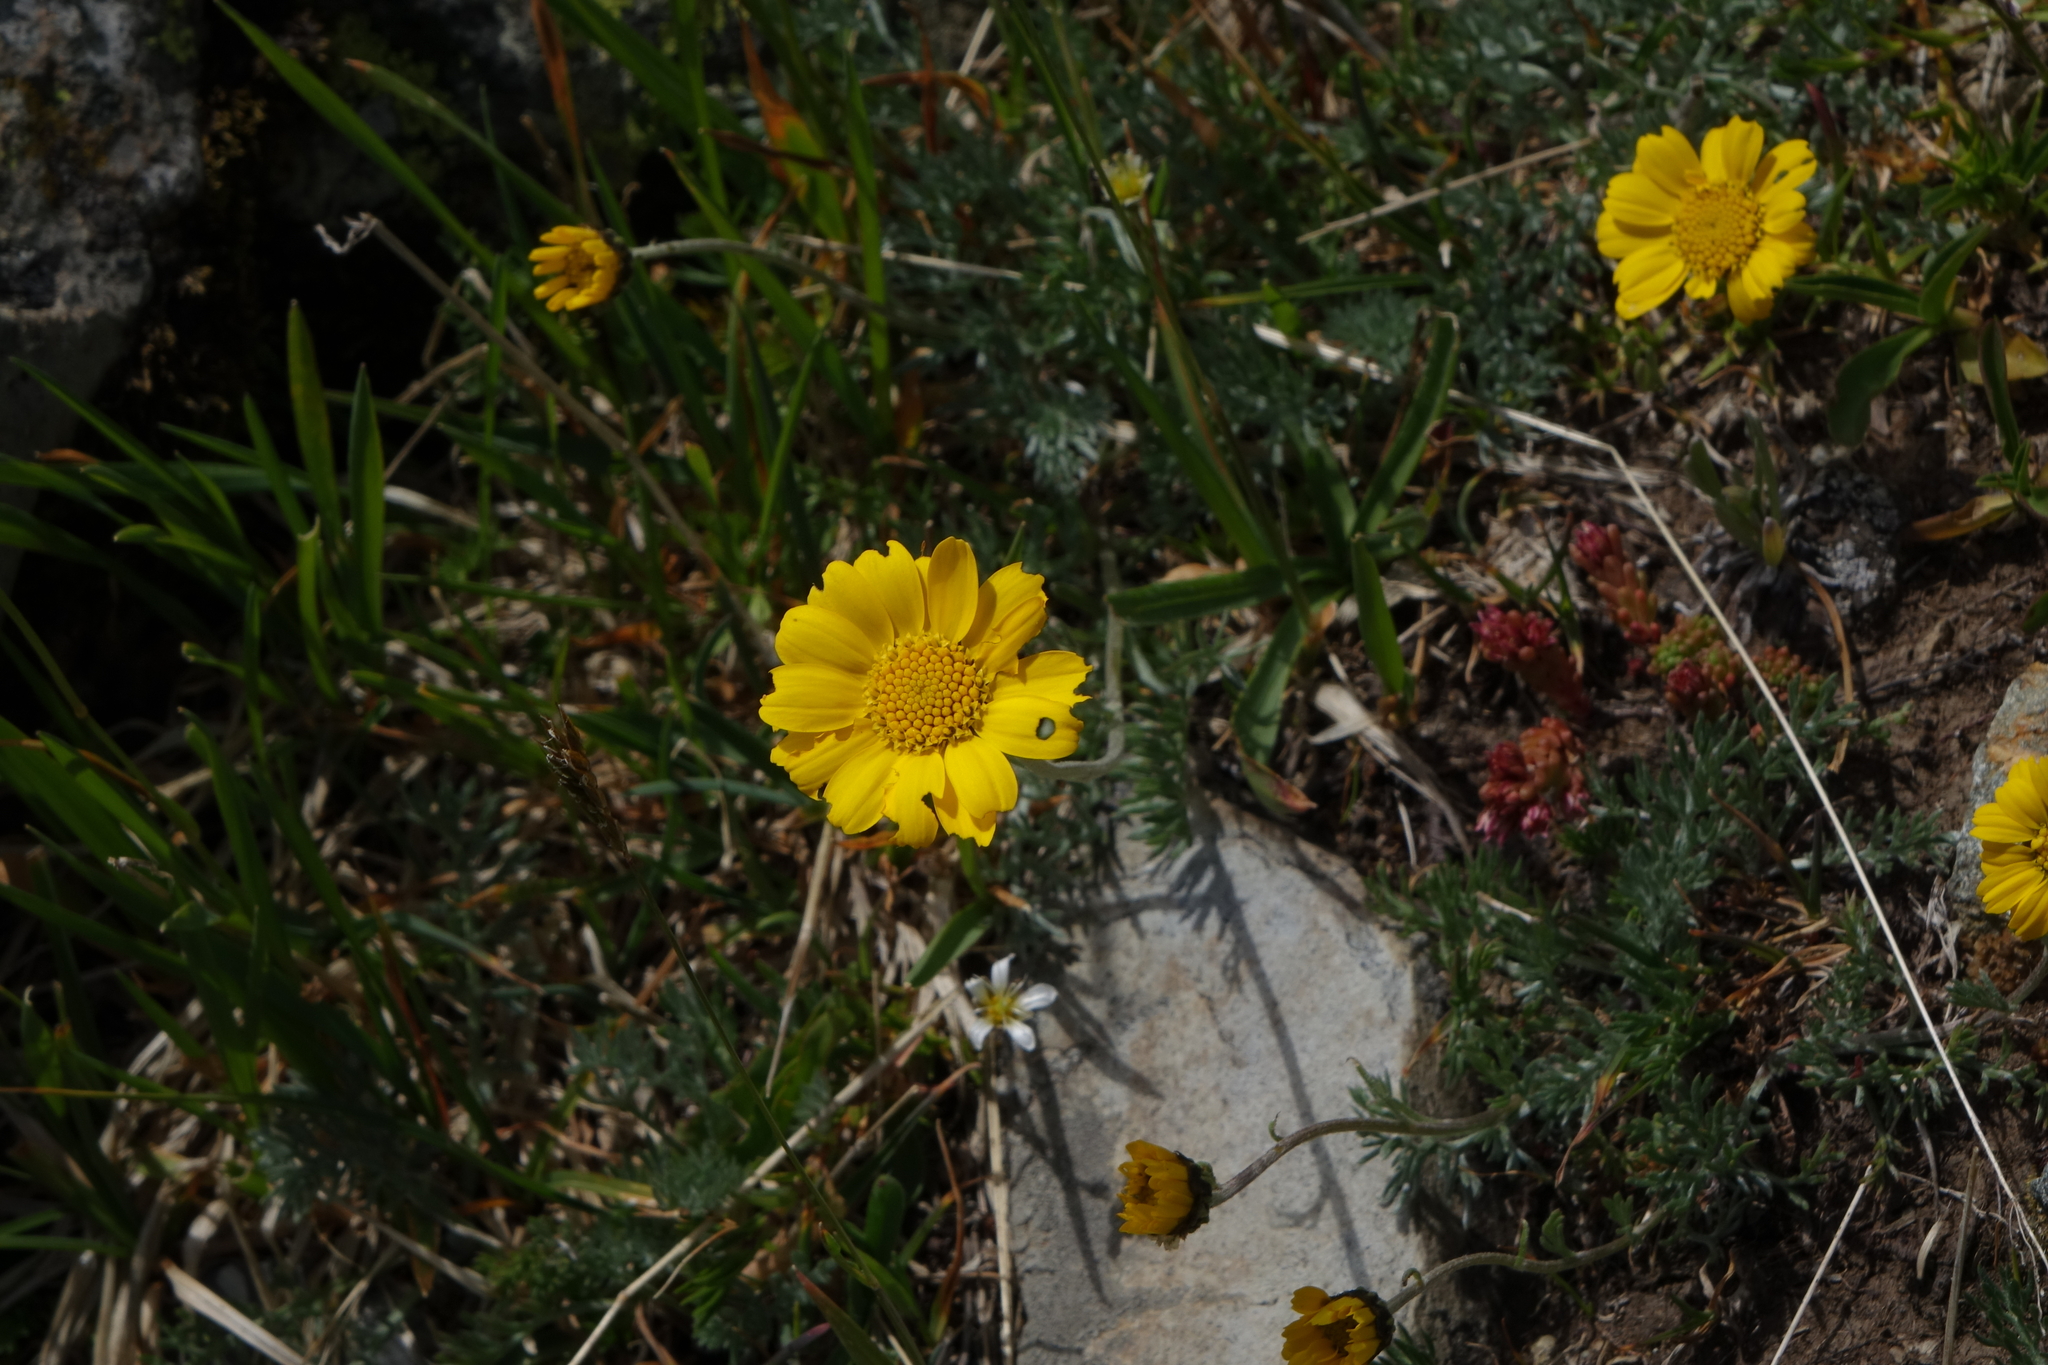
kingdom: Plantae
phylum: Tracheophyta
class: Magnoliopsida
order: Asterales
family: Asteraceae
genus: Archanthemis
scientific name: Archanthemis marschalliana
